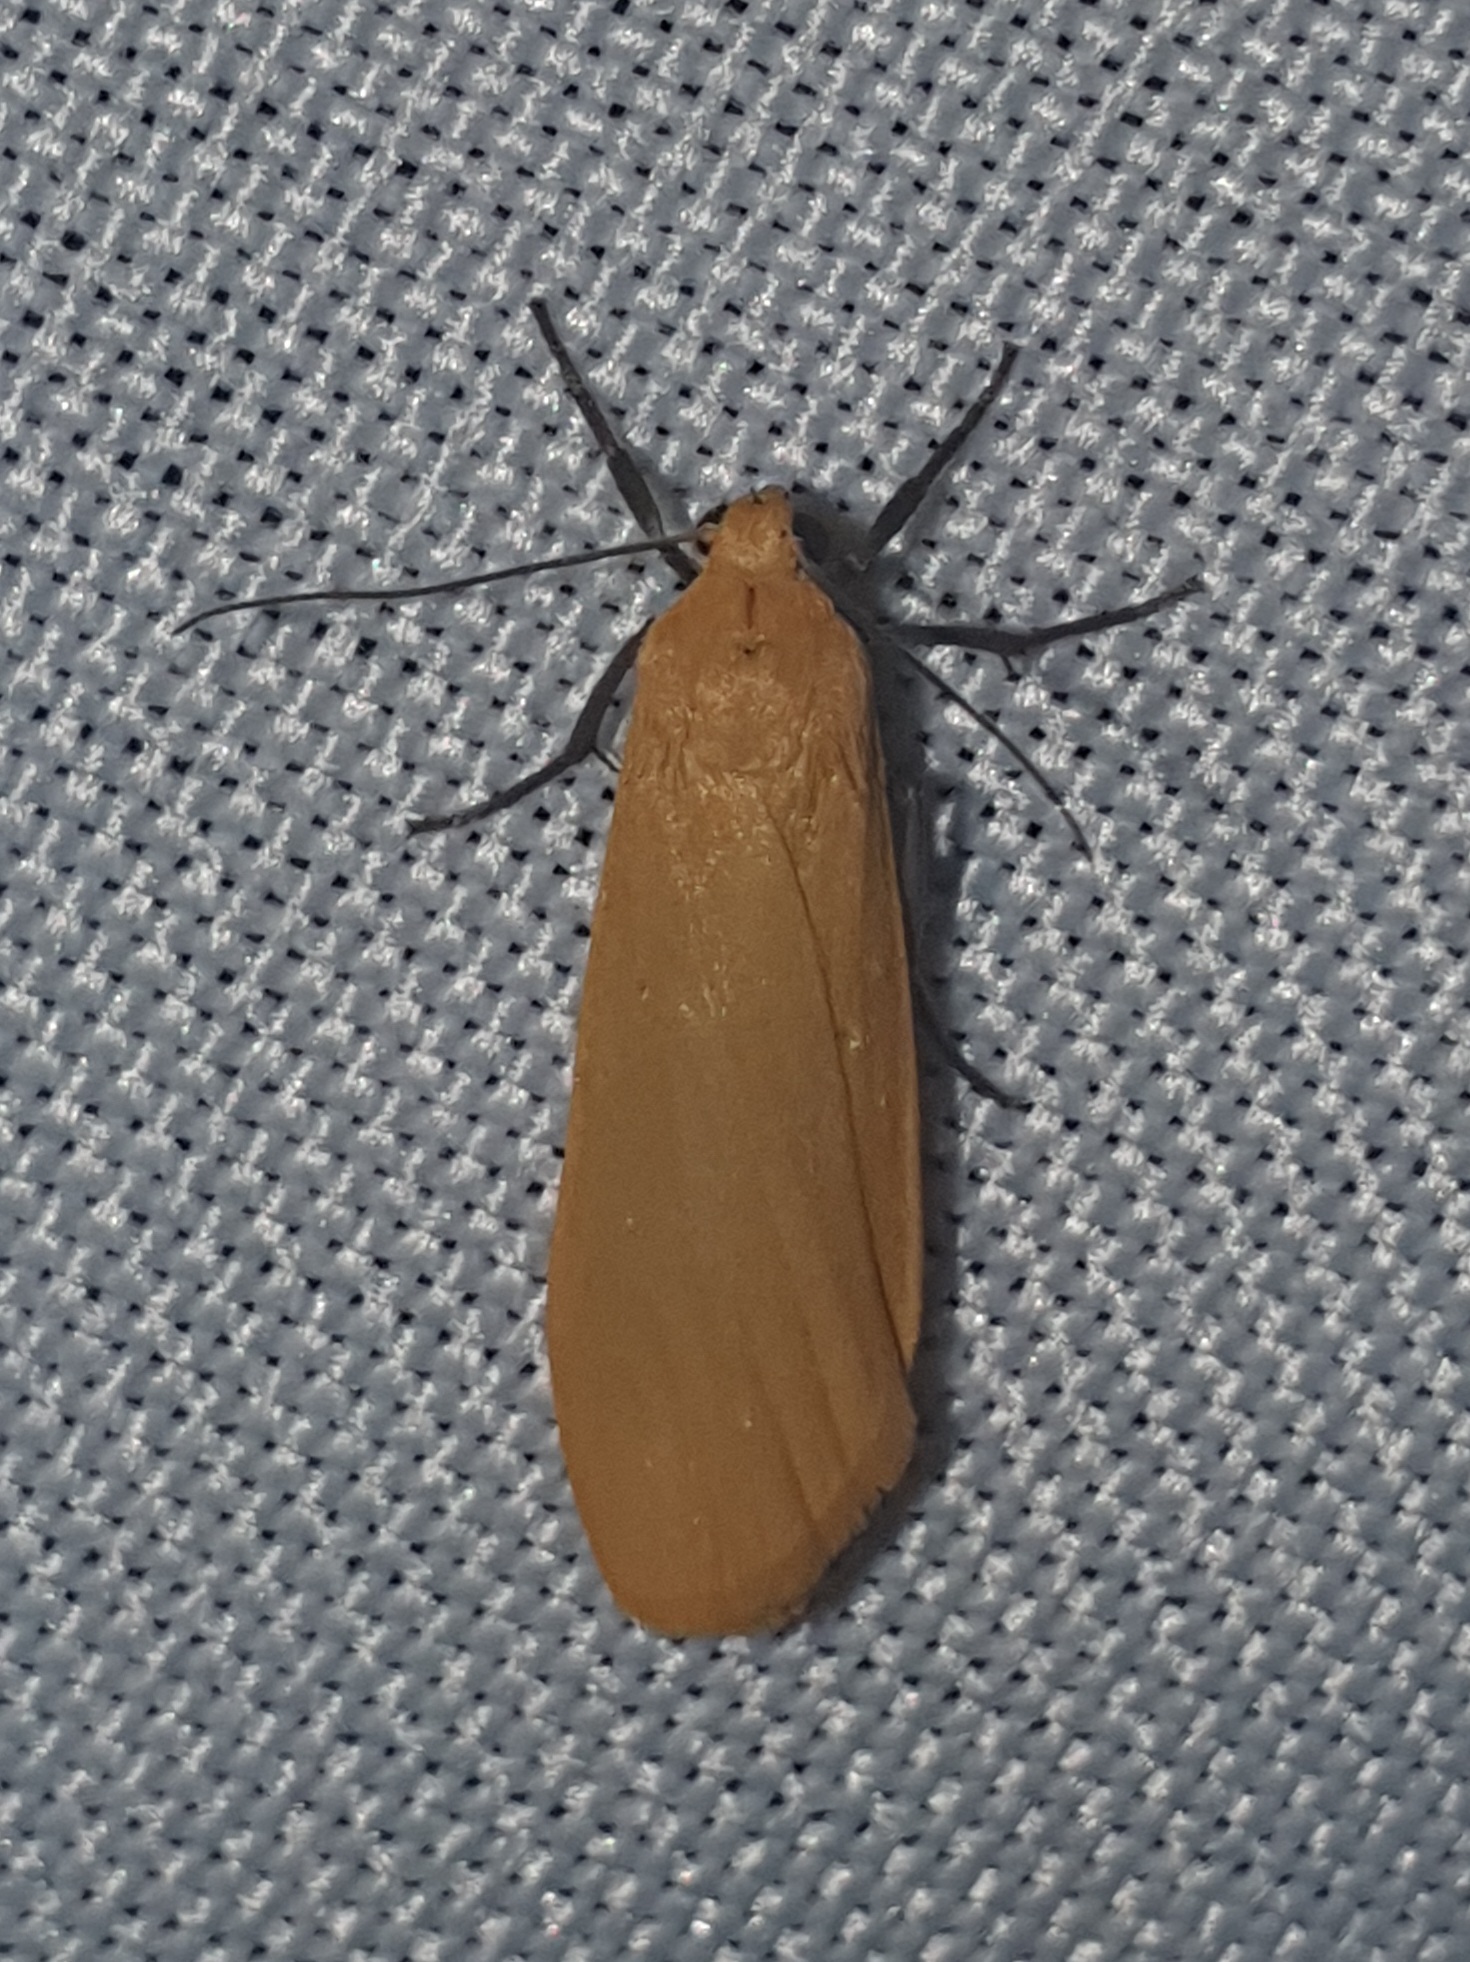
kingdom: Animalia
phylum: Arthropoda
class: Insecta
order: Lepidoptera
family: Erebidae
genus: Wittia
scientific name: Wittia sororcula
